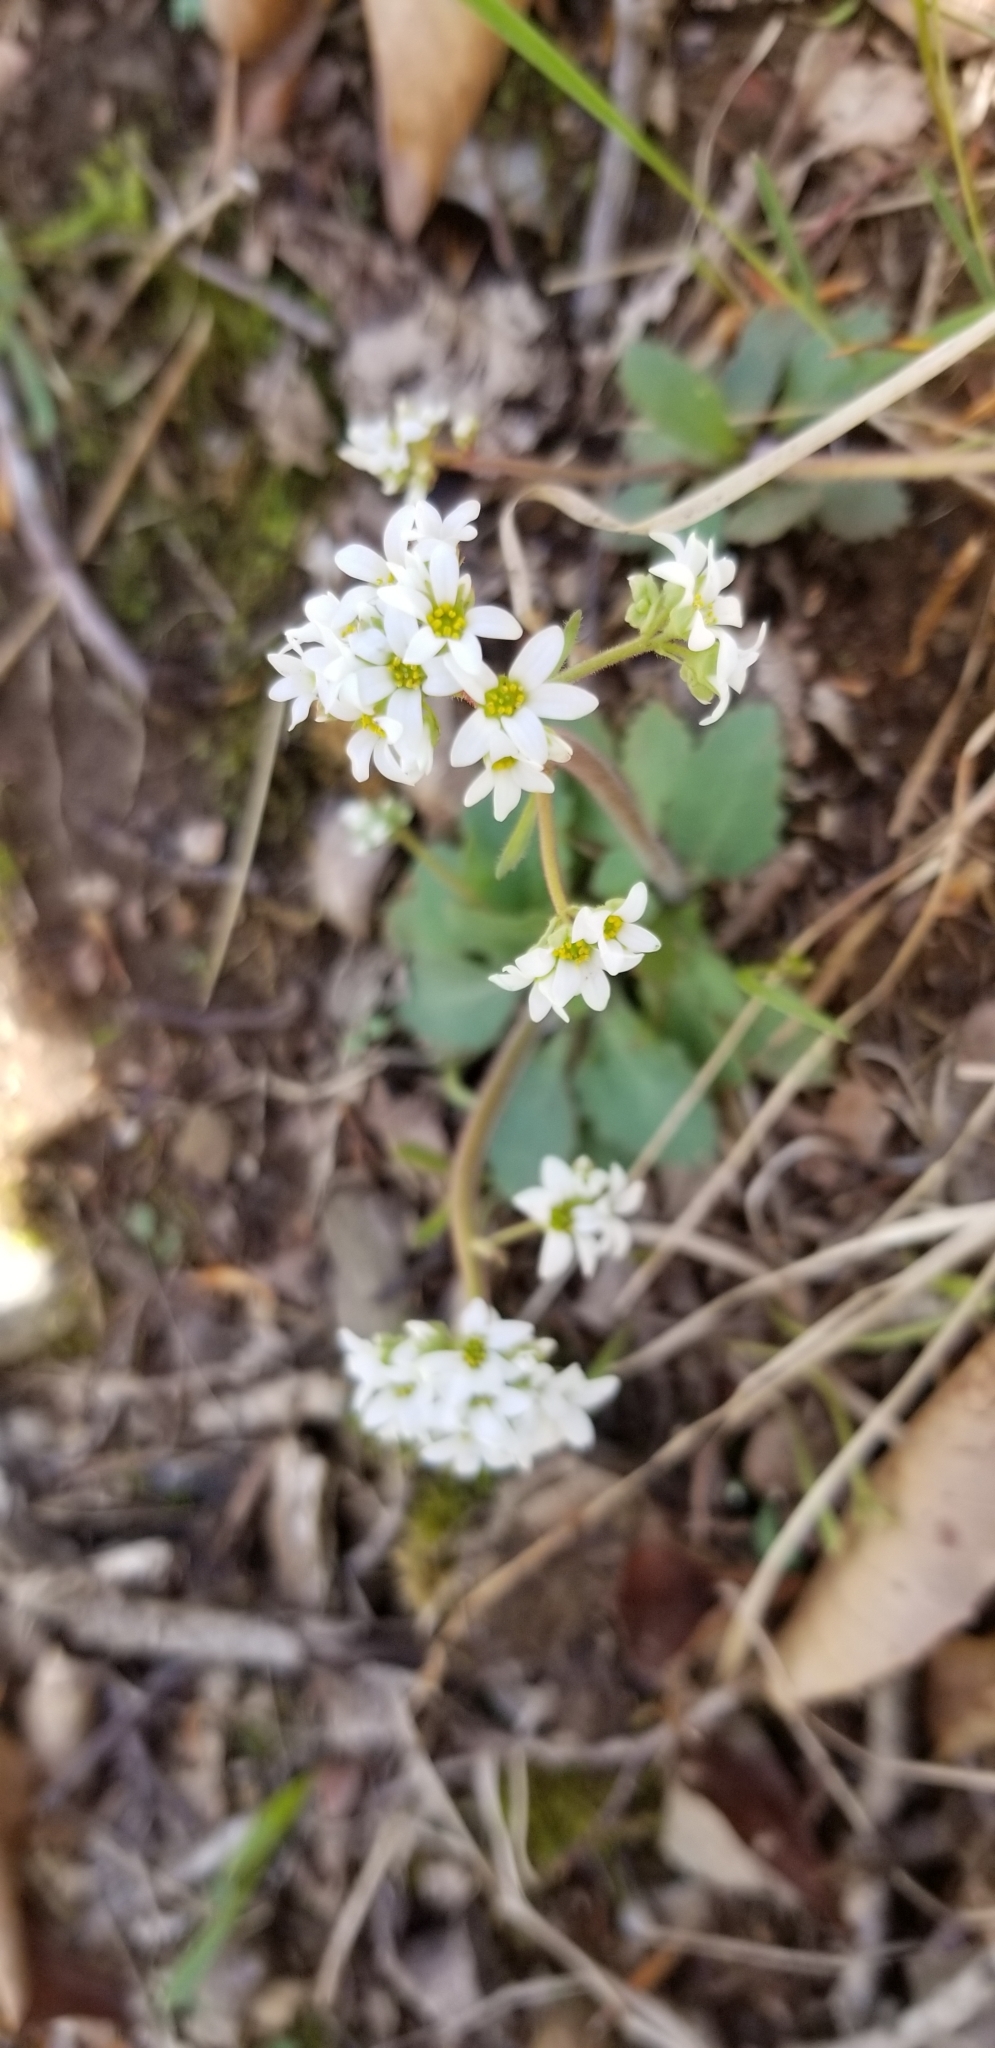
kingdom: Plantae
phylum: Tracheophyta
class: Magnoliopsida
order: Saxifragales
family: Saxifragaceae
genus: Micranthes
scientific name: Micranthes virginiensis
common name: Early saxifrage
